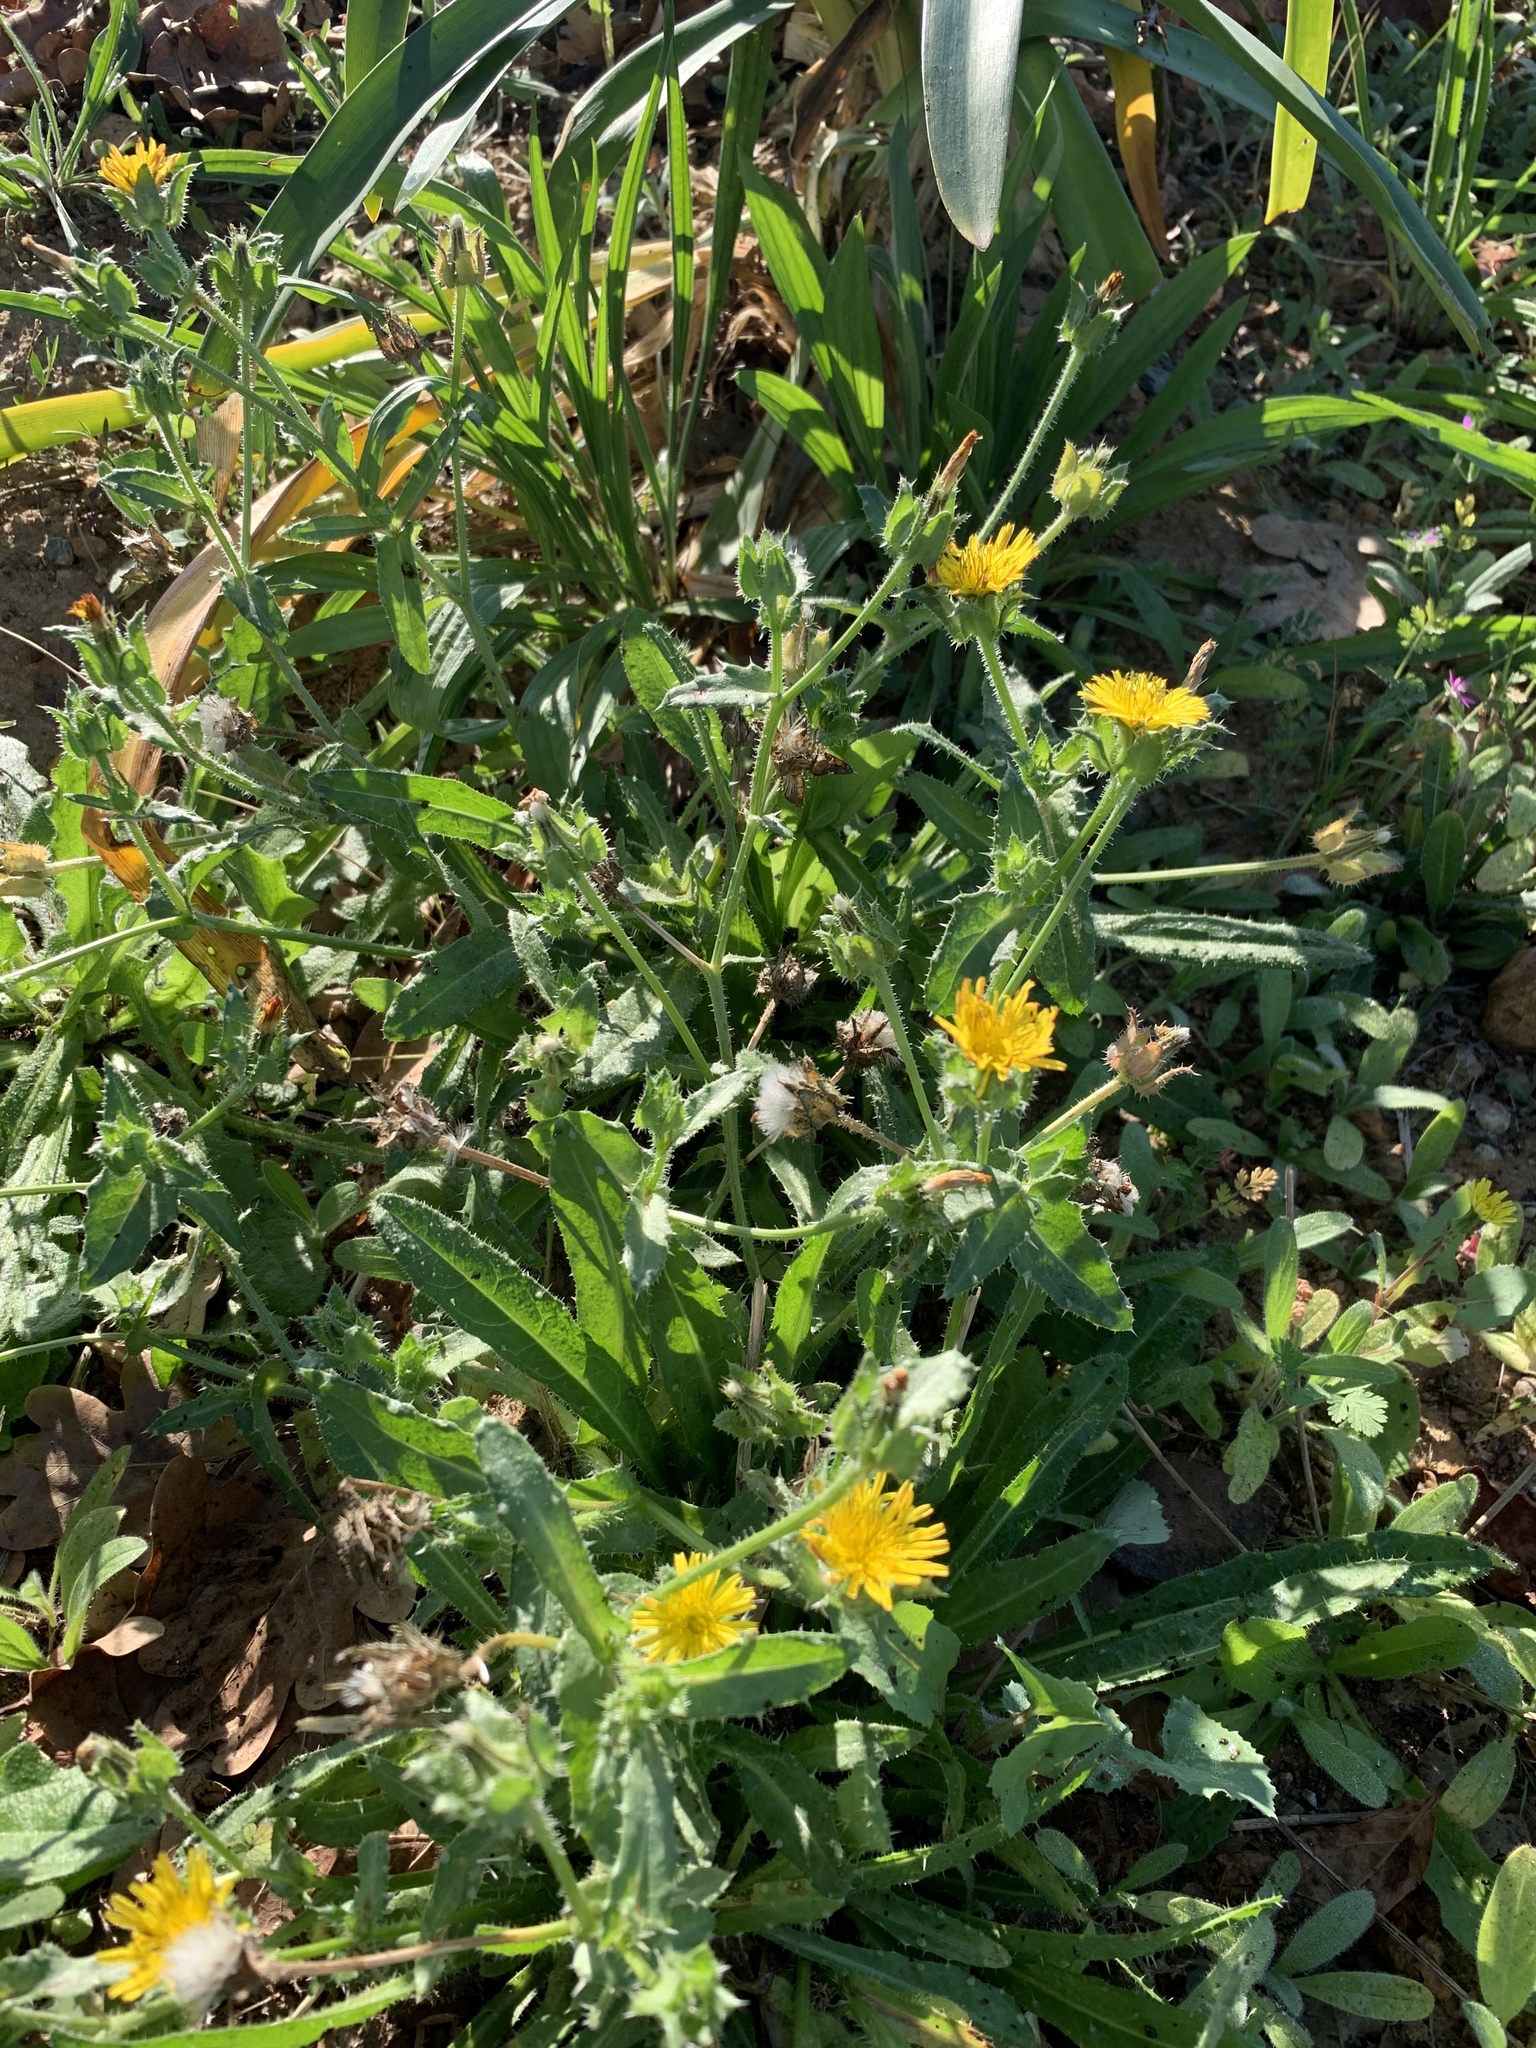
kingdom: Plantae
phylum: Tracheophyta
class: Magnoliopsida
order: Asterales
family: Asteraceae
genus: Helminthotheca
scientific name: Helminthotheca echioides
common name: Ox-tongue
